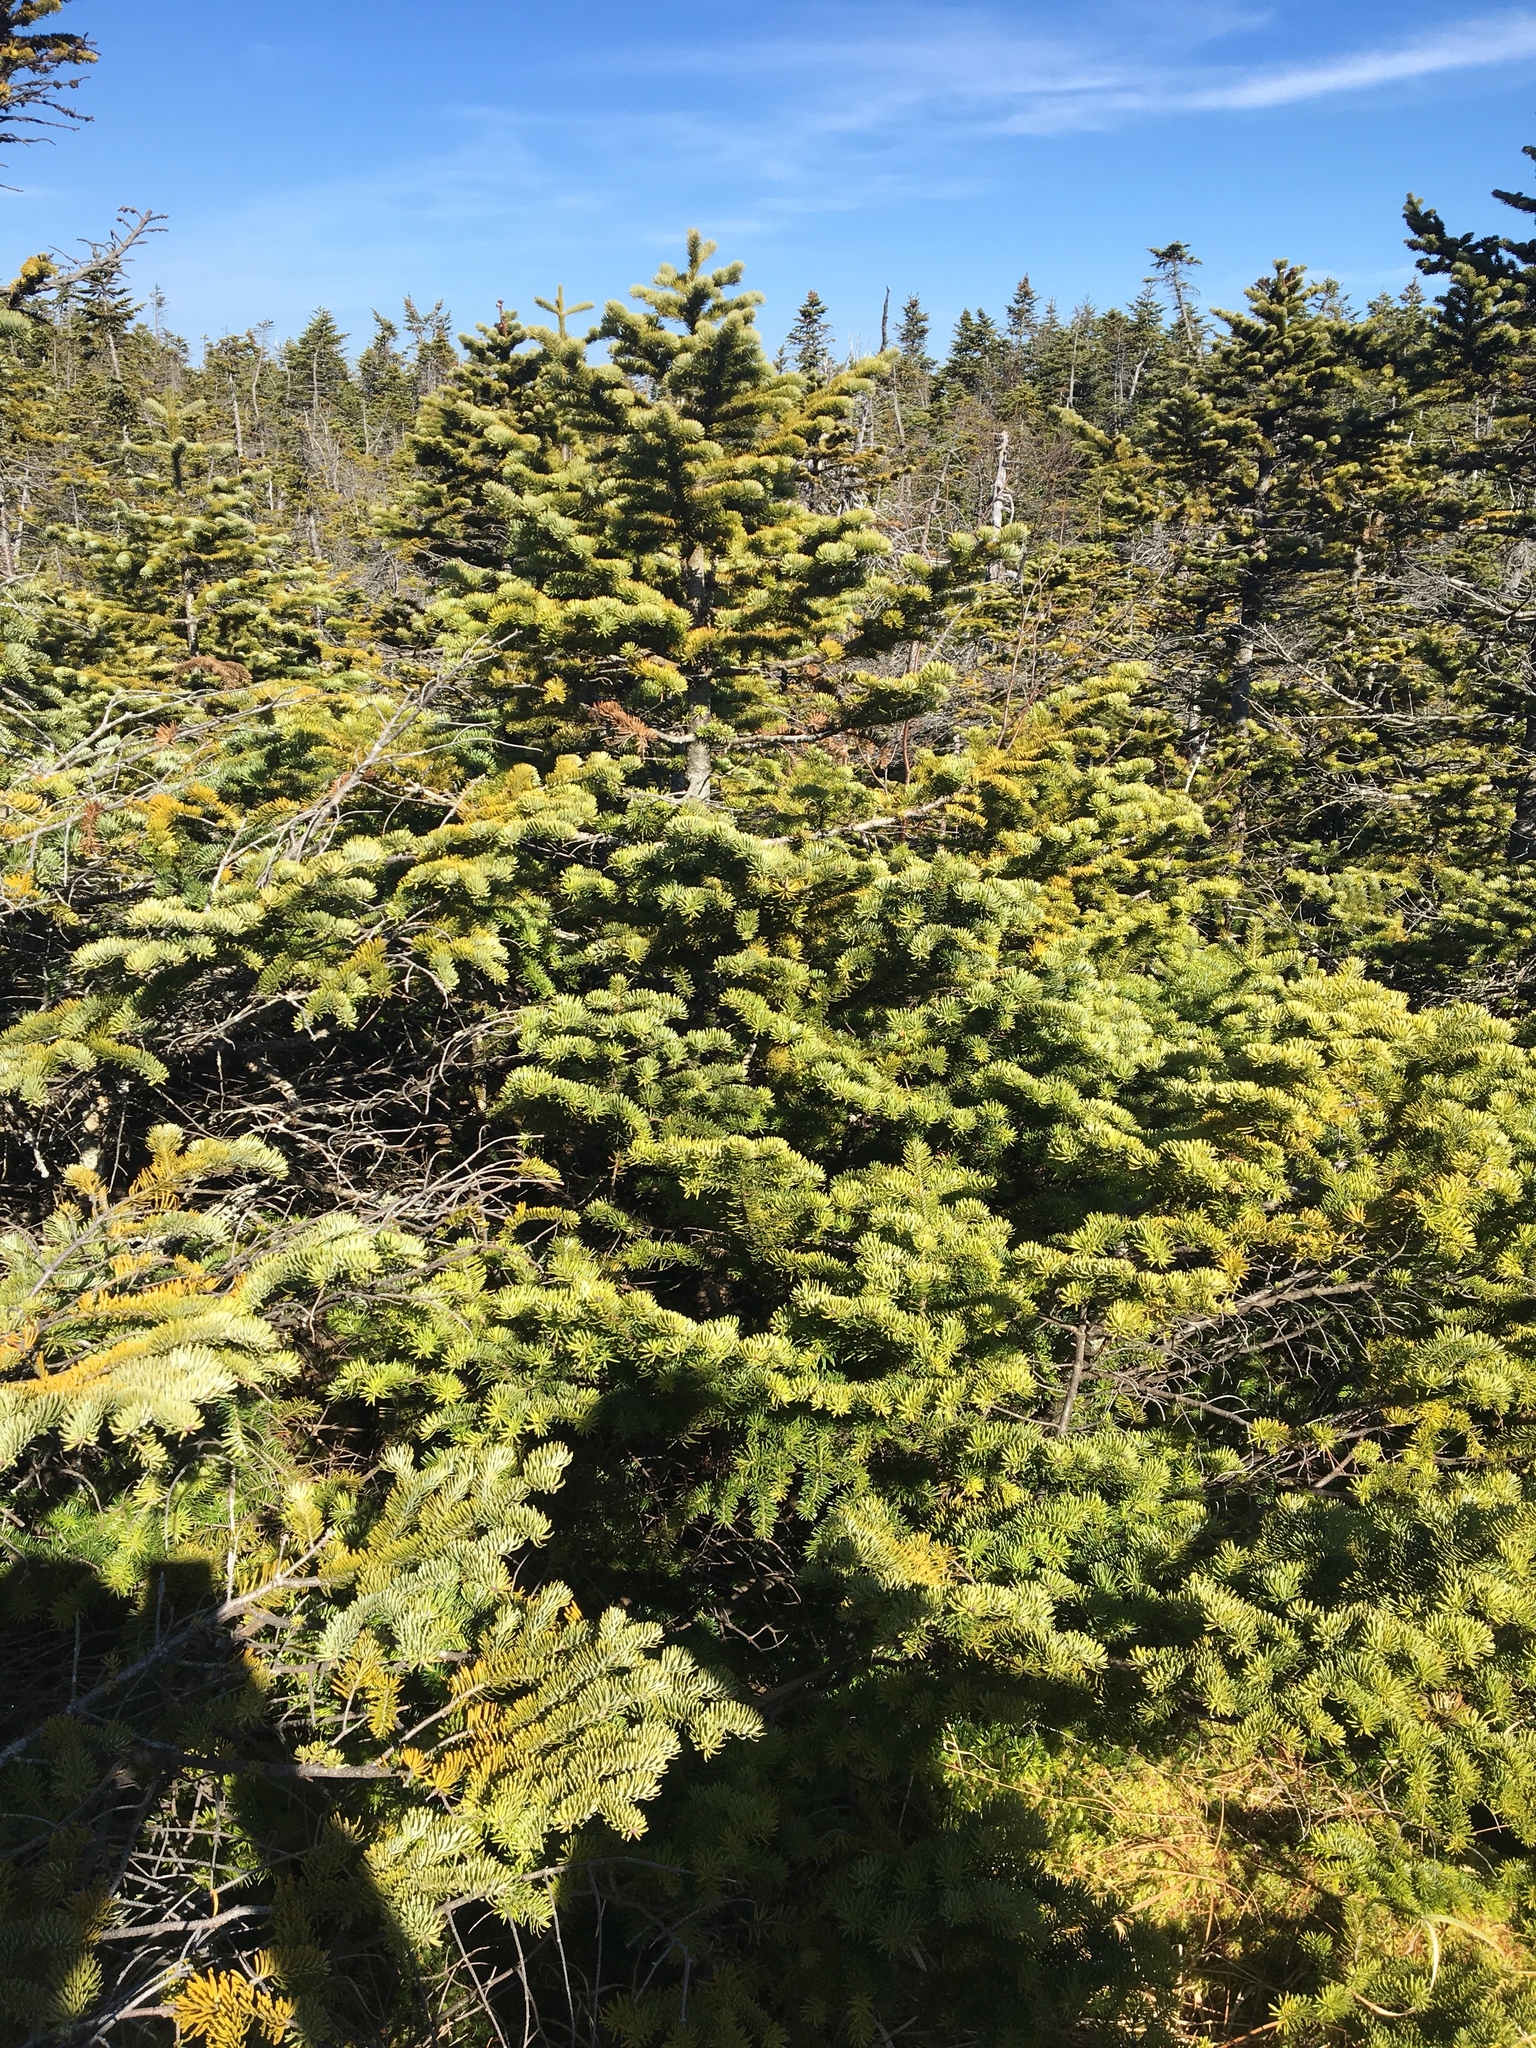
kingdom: Plantae
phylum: Tracheophyta
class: Pinopsida
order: Pinales
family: Pinaceae
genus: Abies
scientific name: Abies balsamea
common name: Balsam fir
